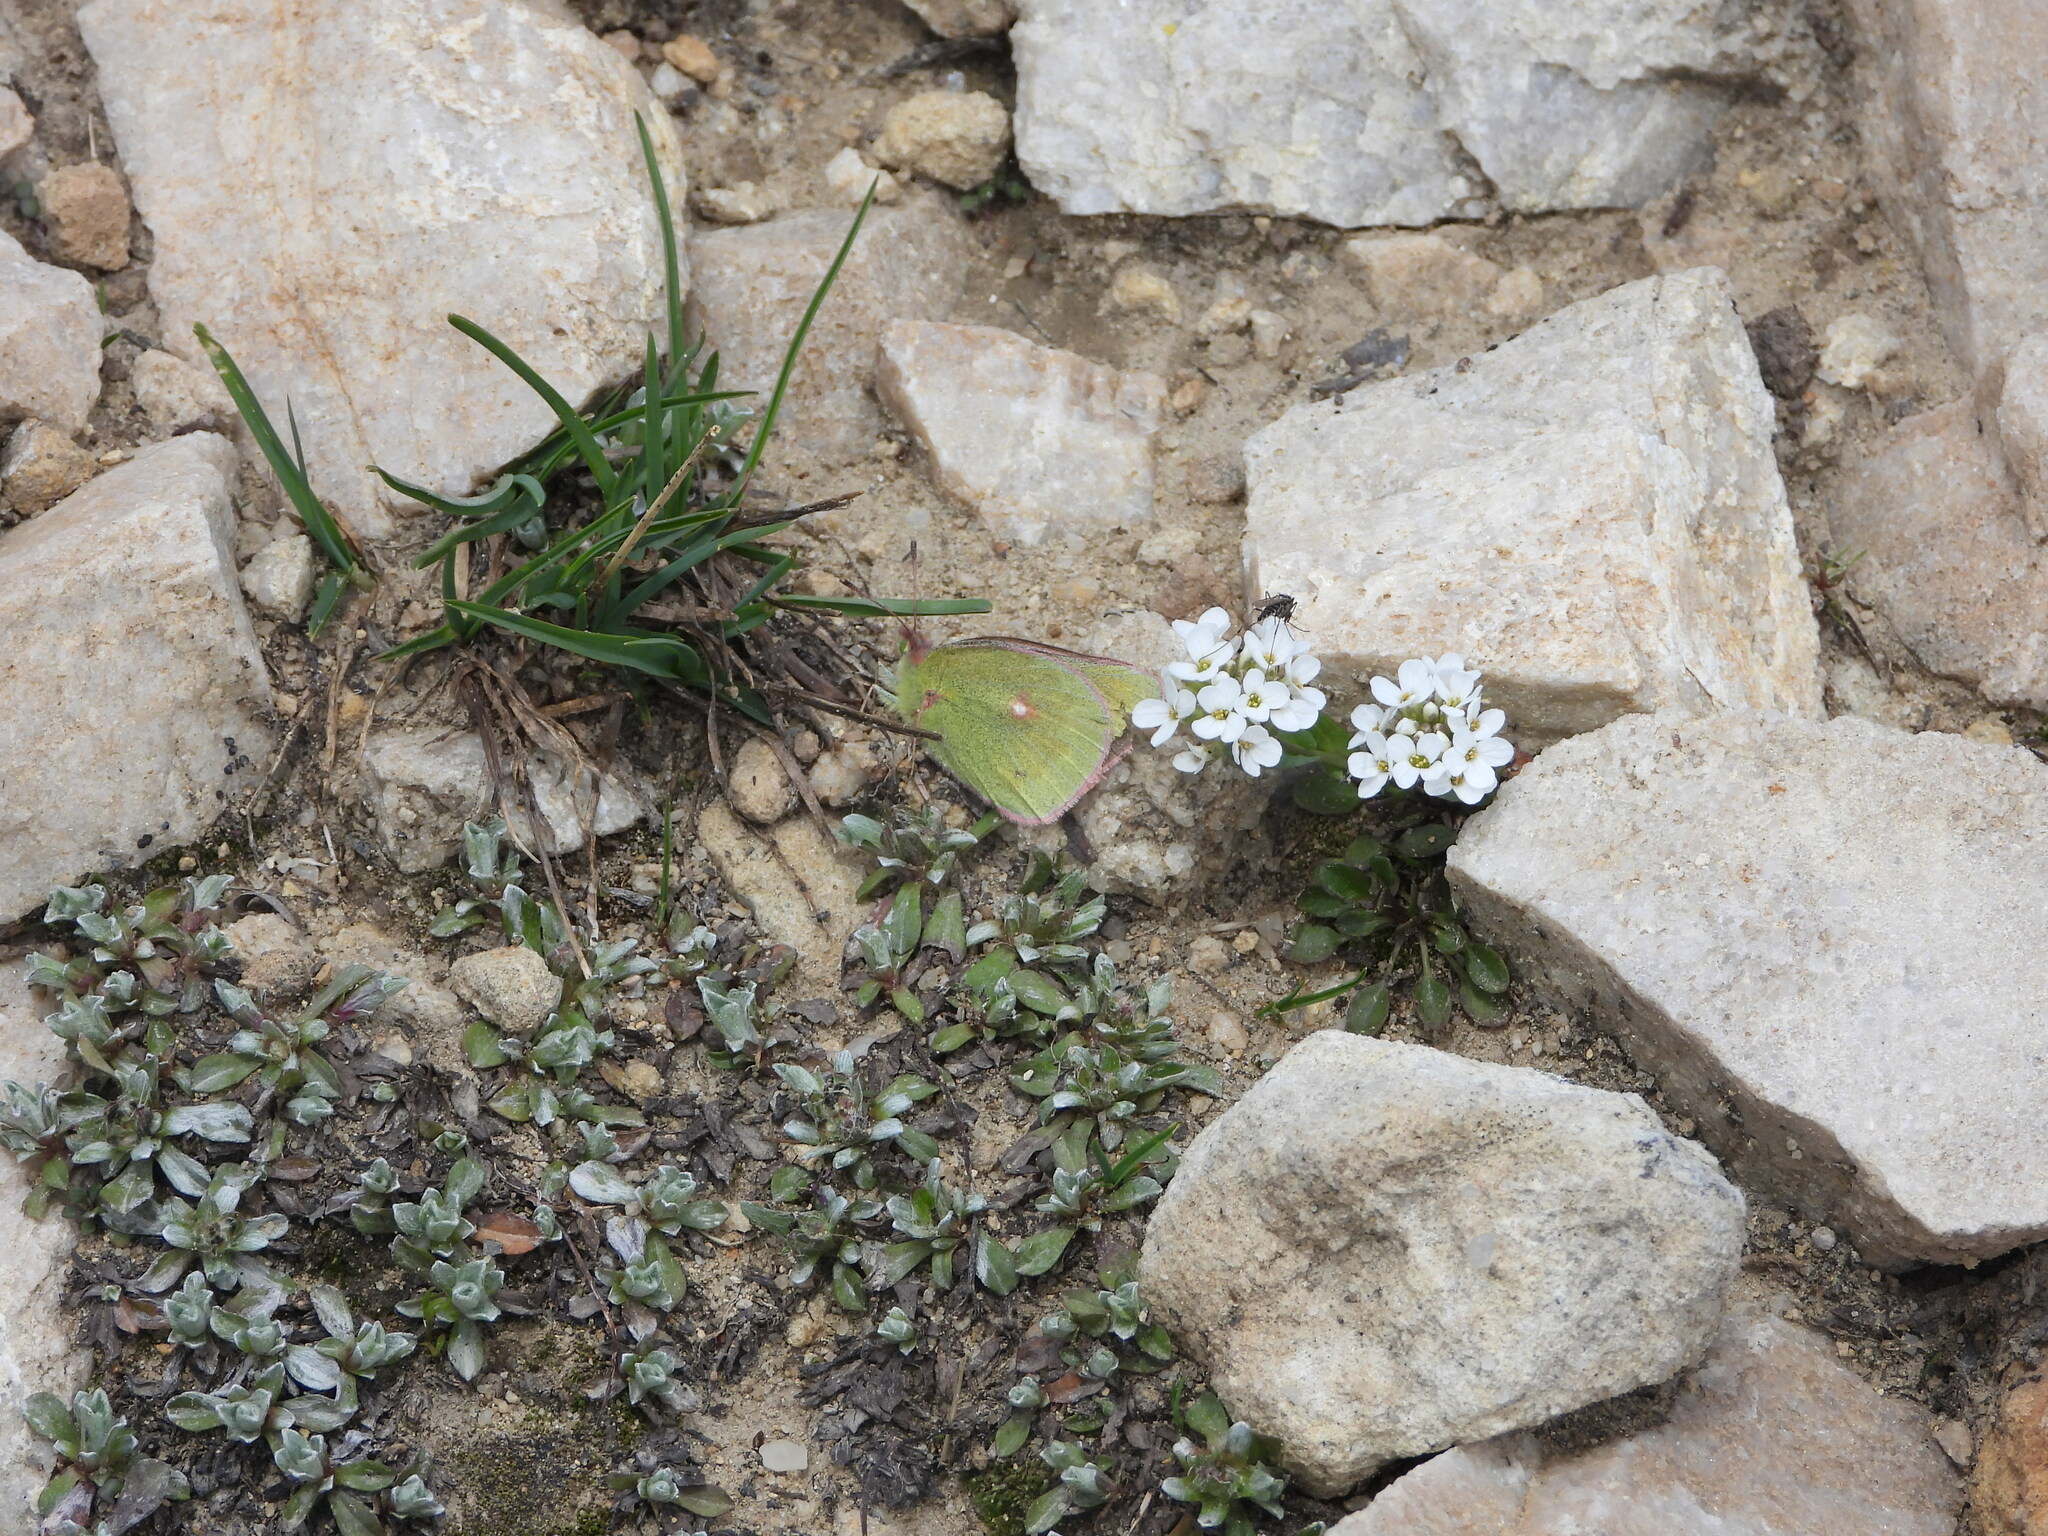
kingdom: Animalia
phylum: Arthropoda
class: Insecta
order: Lepidoptera
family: Pieridae
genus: Colias
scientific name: Colias meadii
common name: Mead's sulphur
